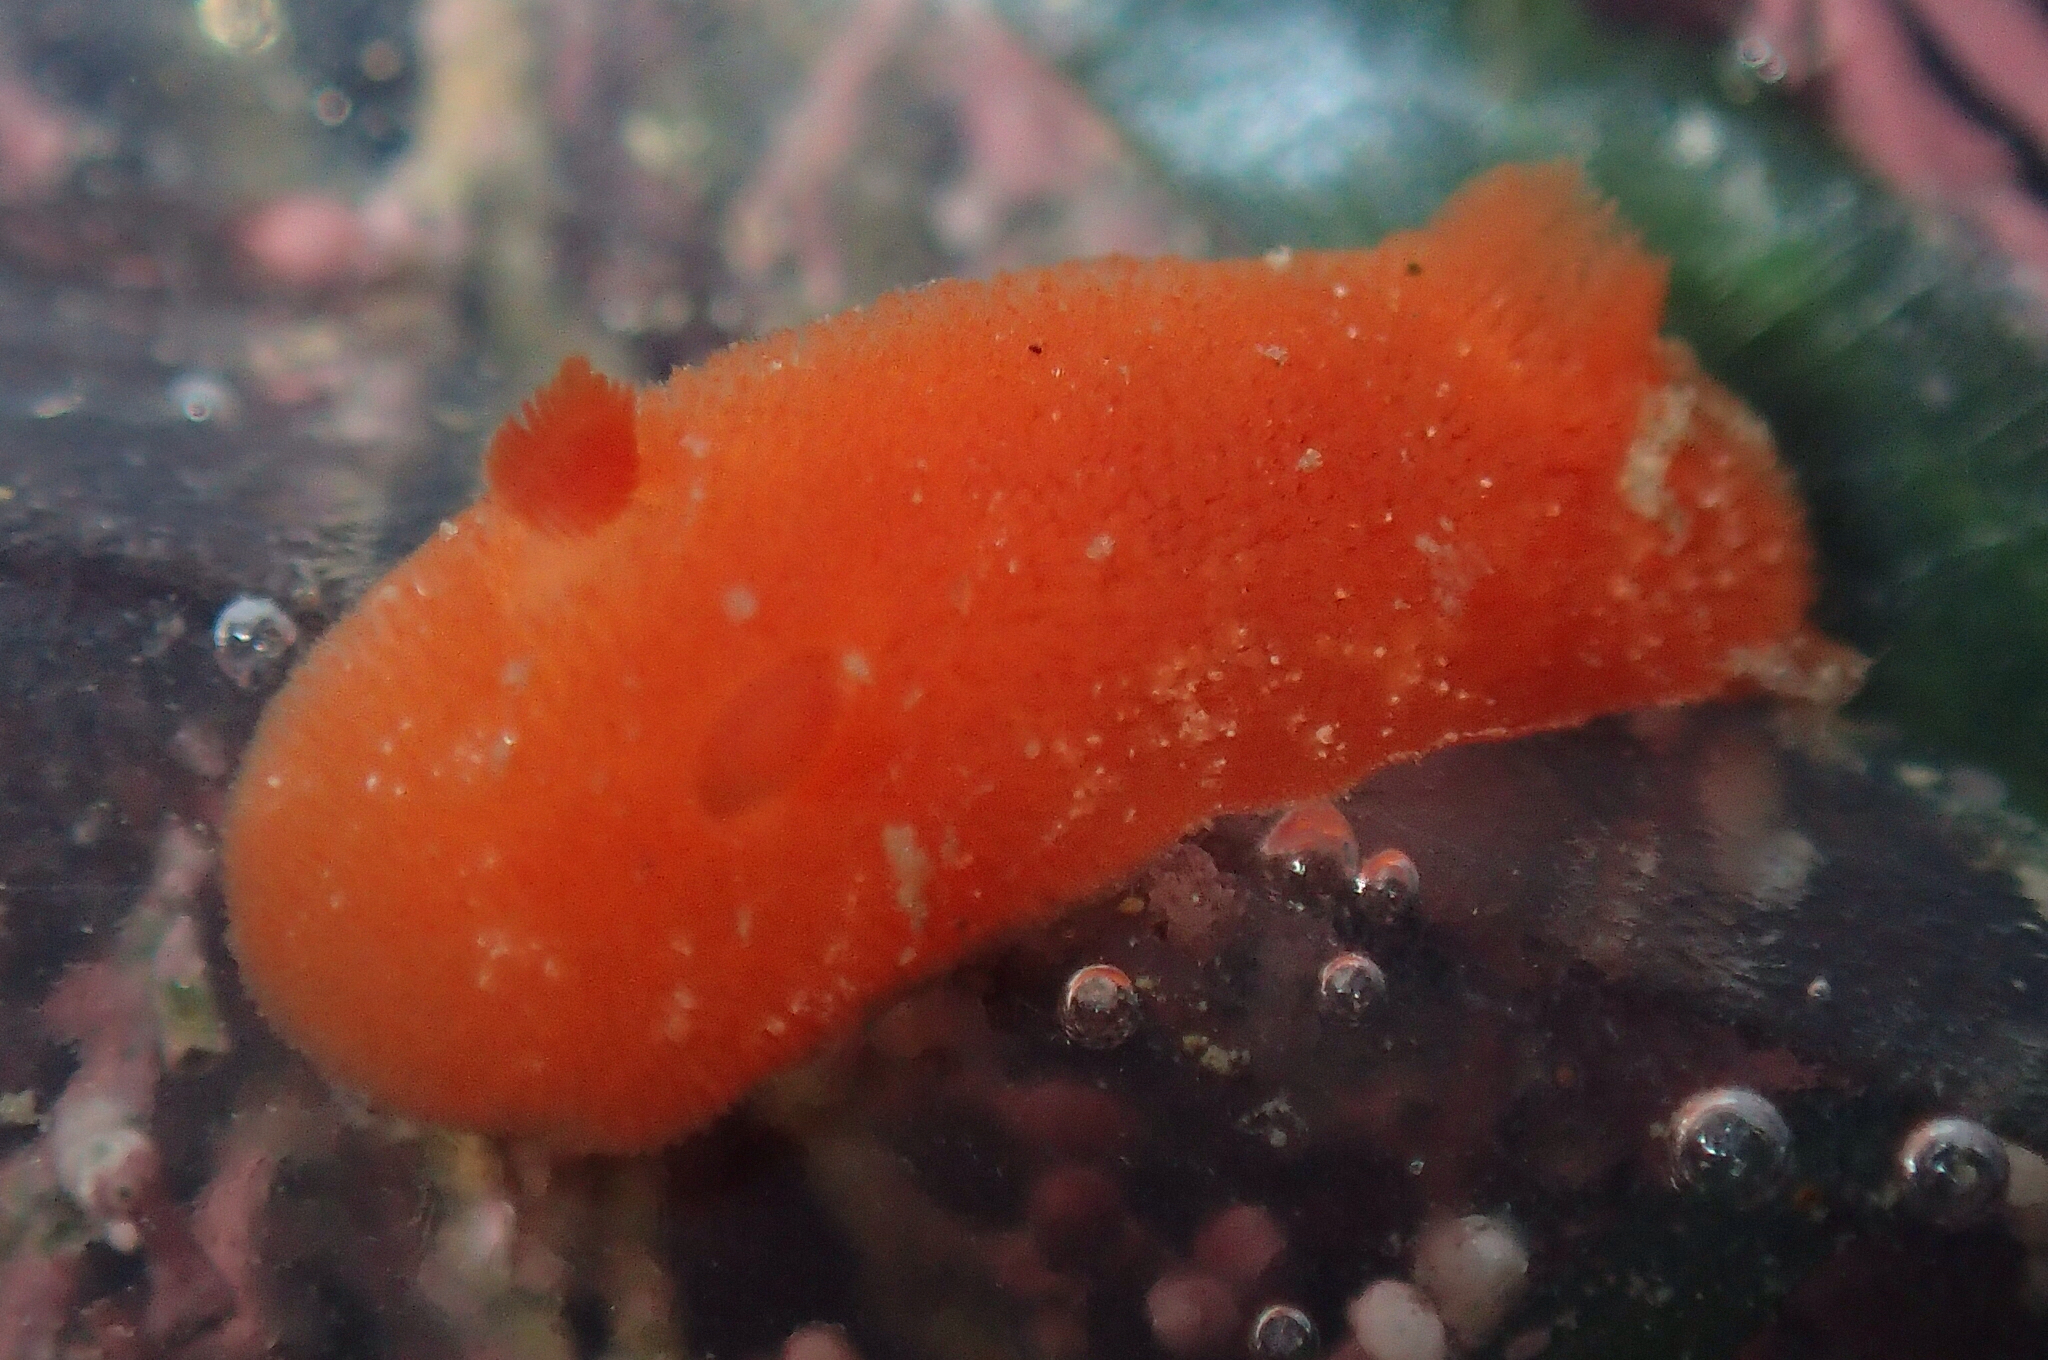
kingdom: Animalia
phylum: Mollusca
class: Gastropoda
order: Nudibranchia
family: Discodorididae
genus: Rostanga
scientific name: Rostanga pulchra
